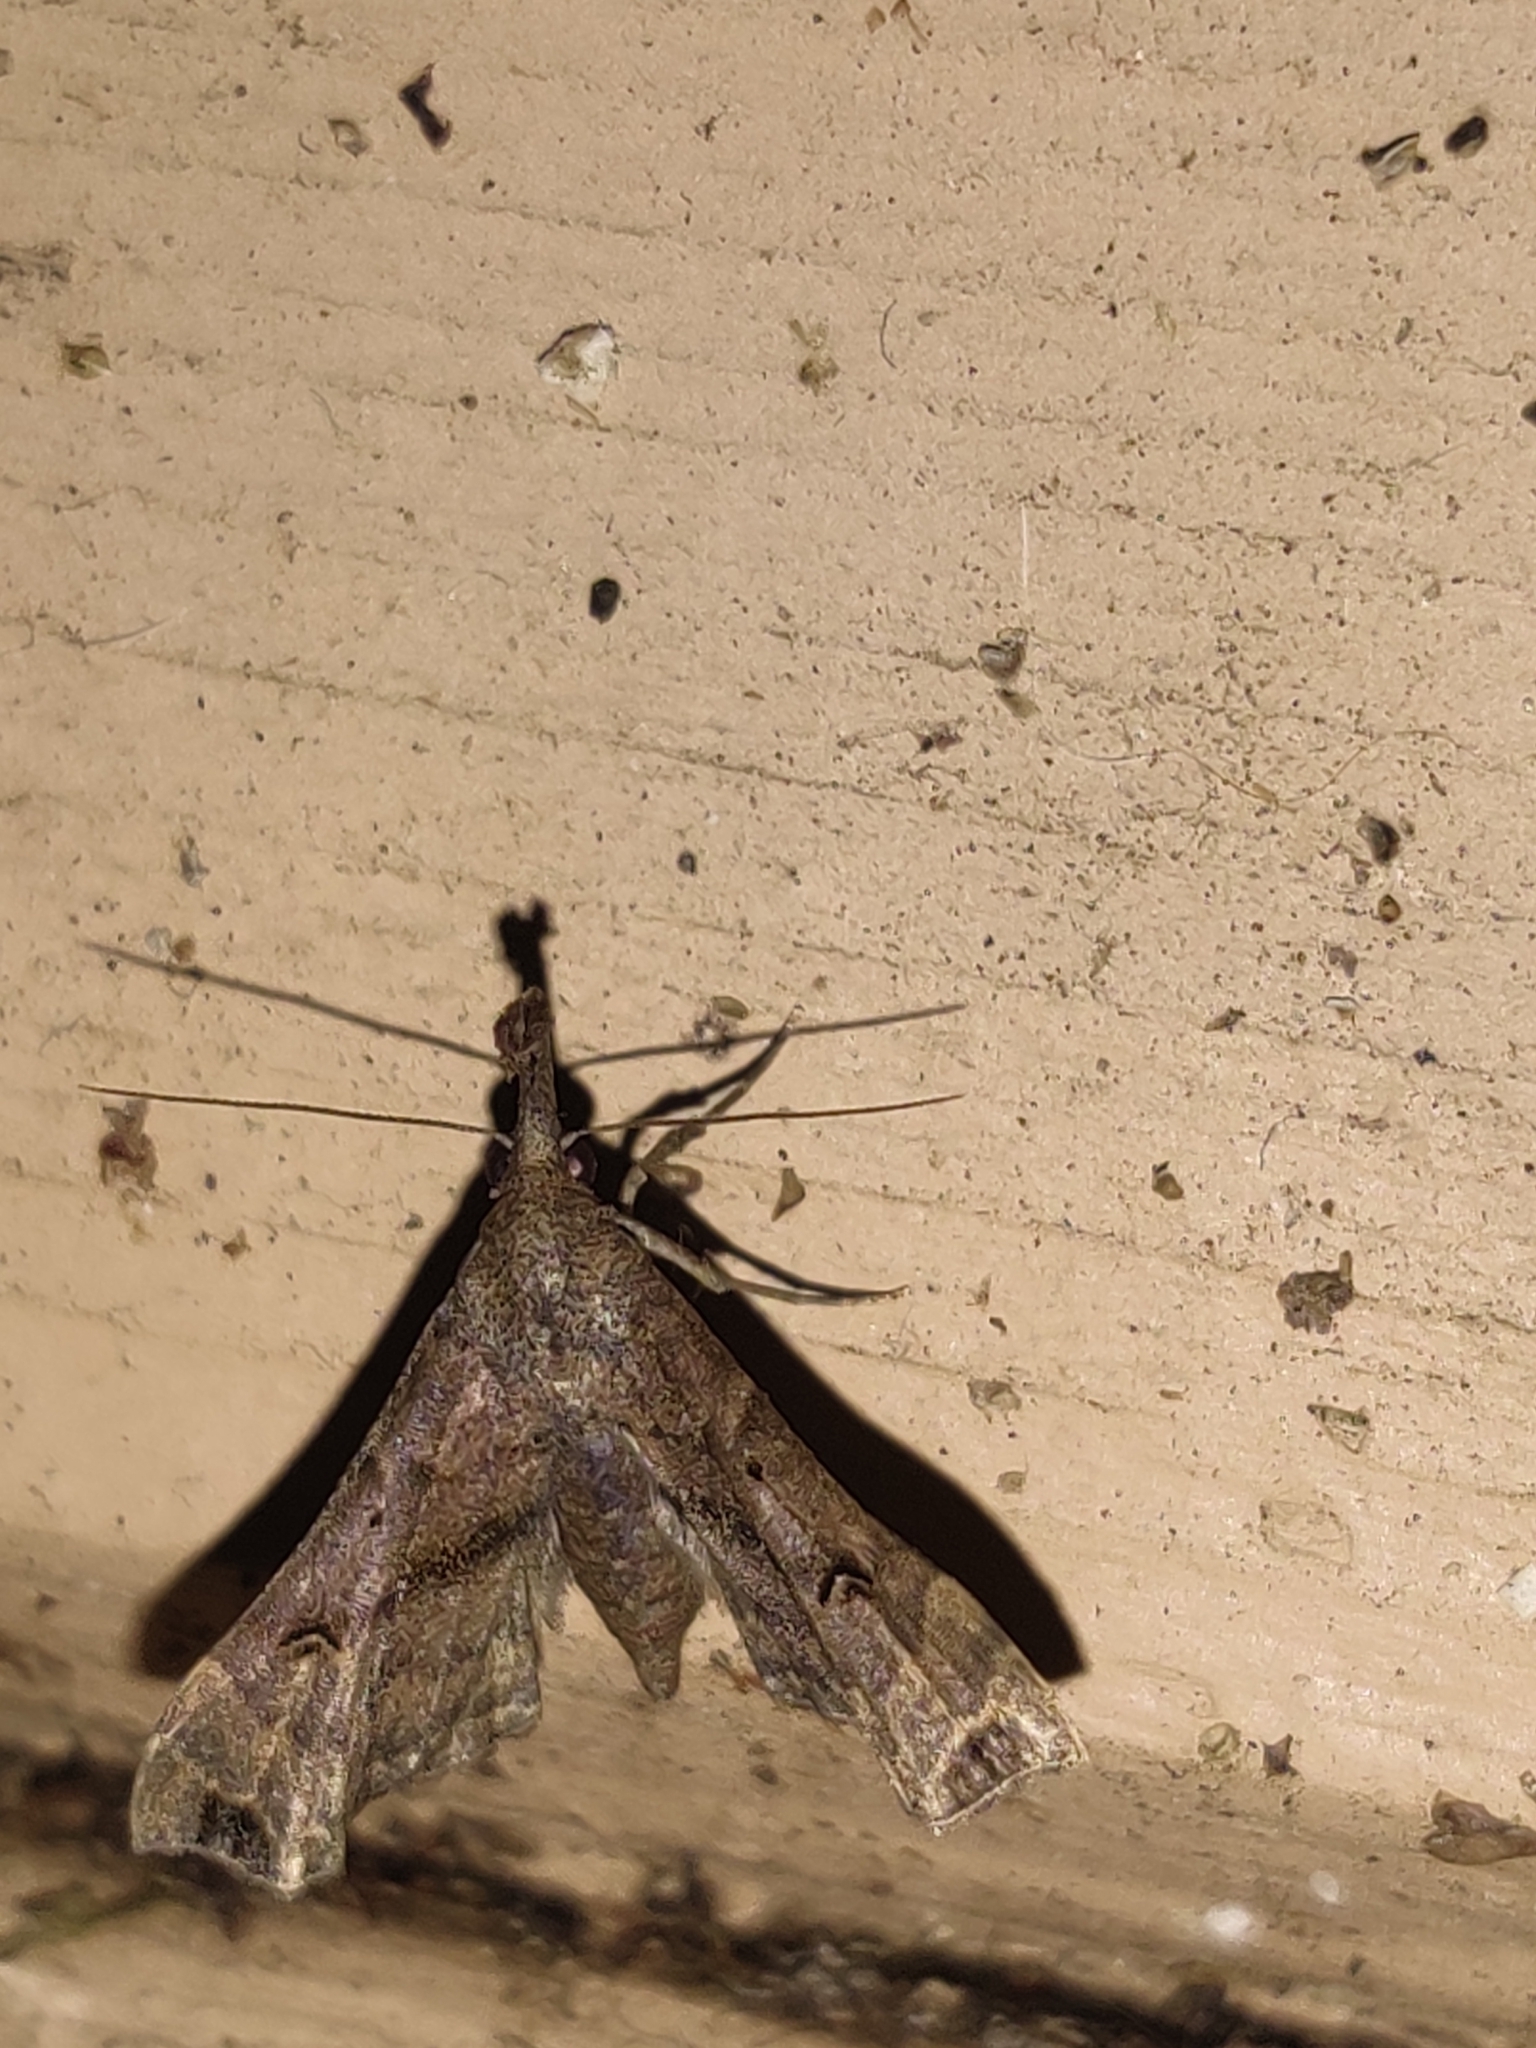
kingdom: Animalia
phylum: Arthropoda
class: Insecta
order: Lepidoptera
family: Erebidae
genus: Palthis
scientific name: Palthis asopialis
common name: Faint-spotted palthis moth
